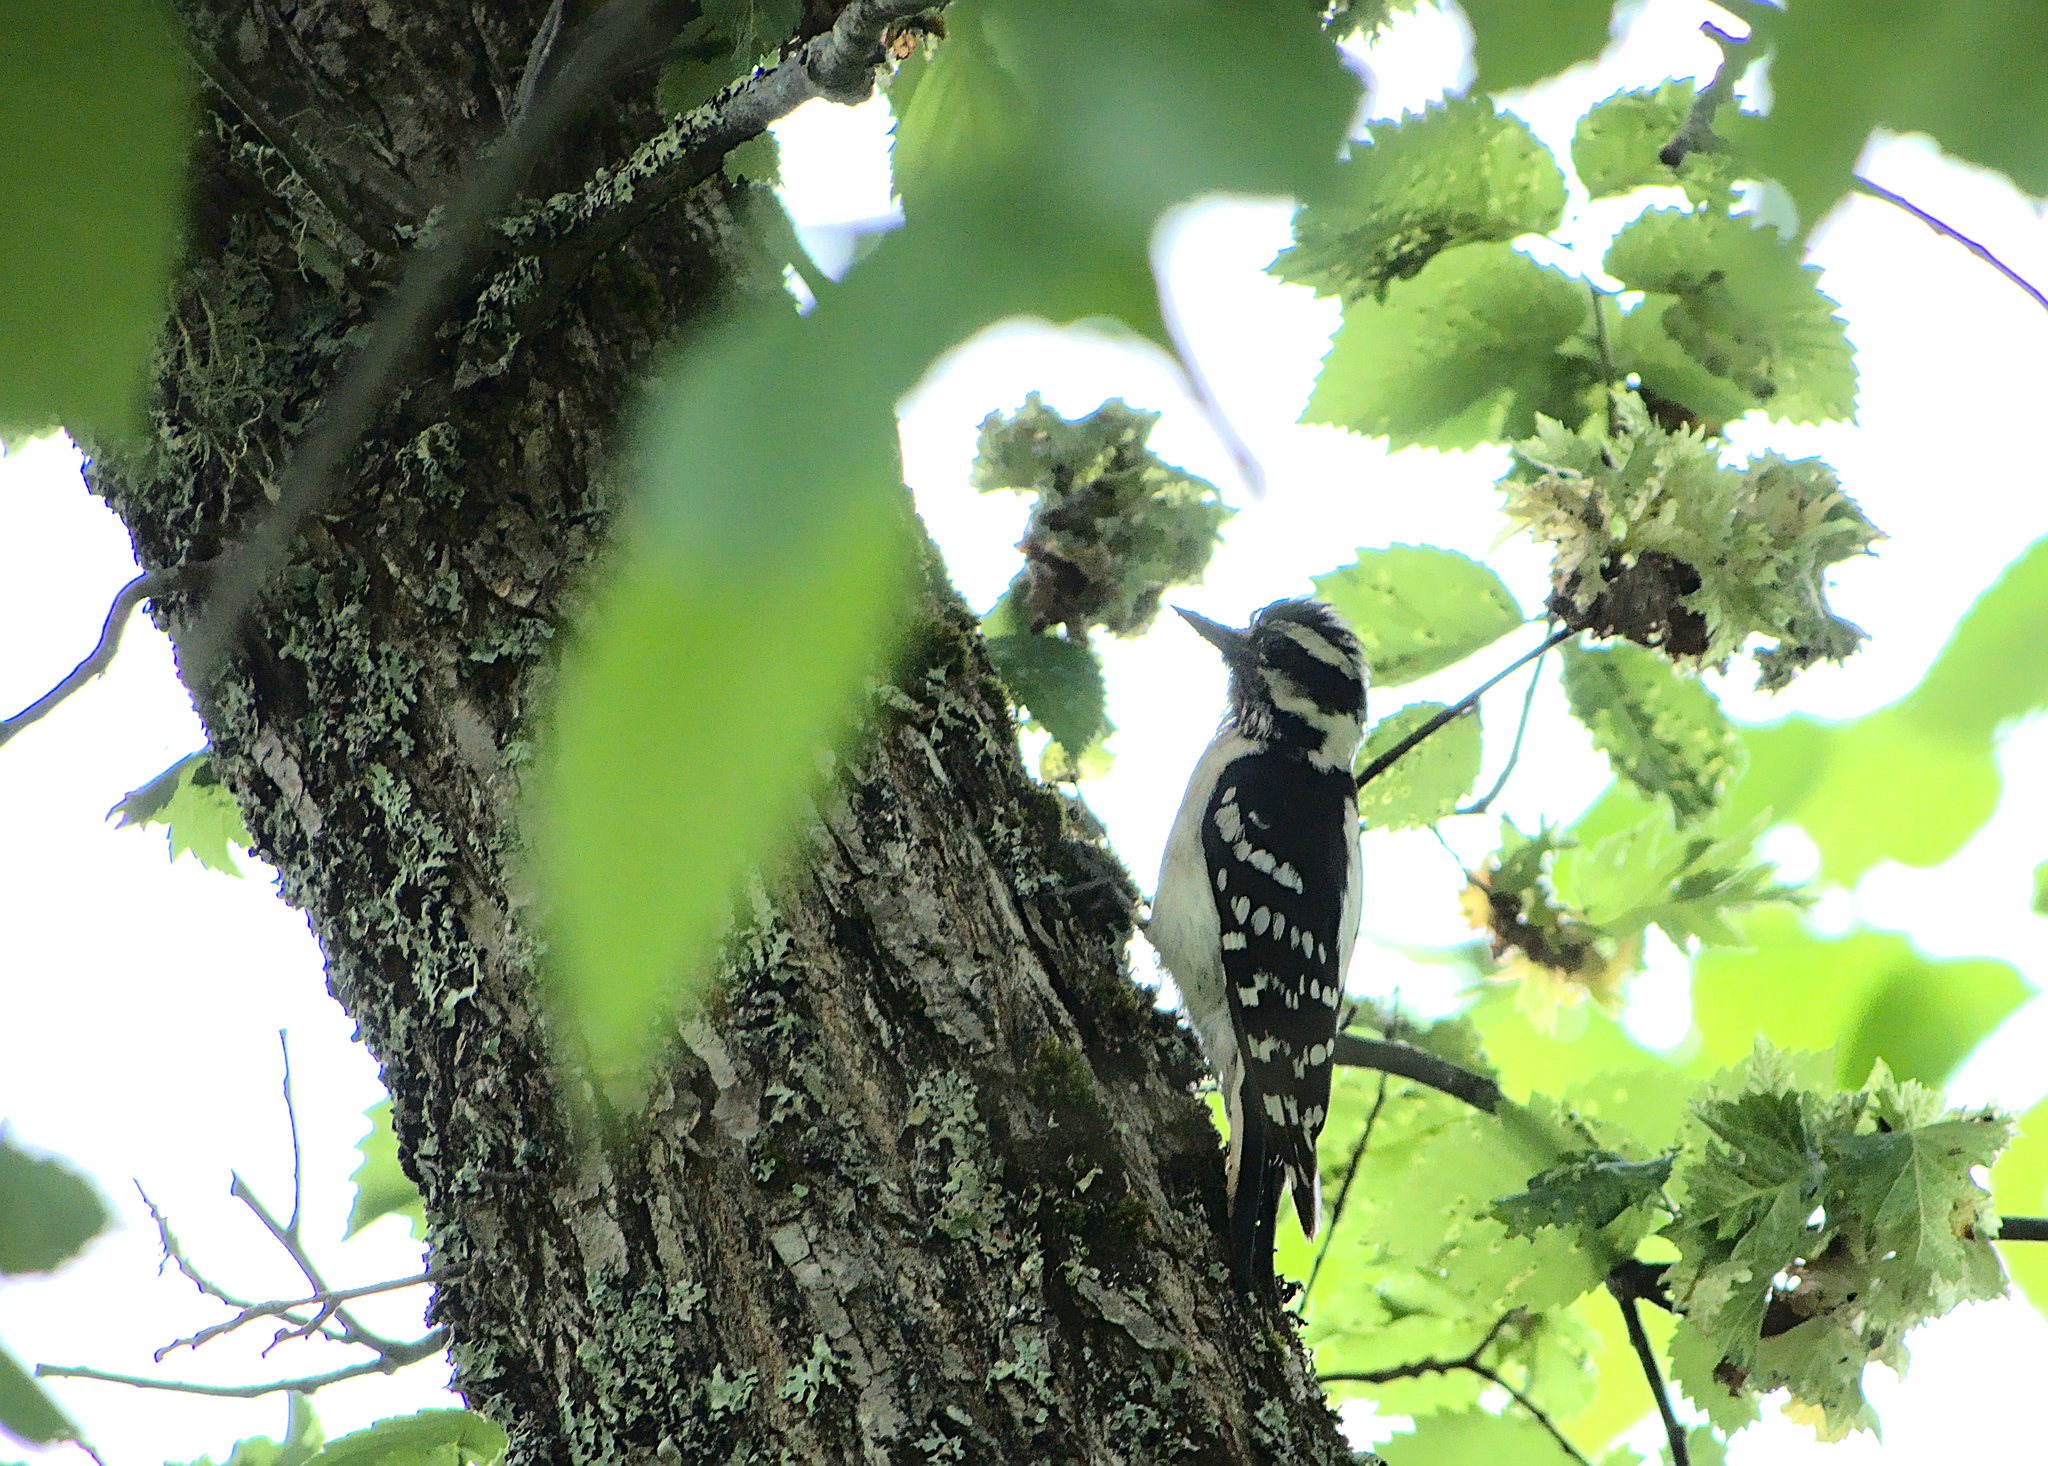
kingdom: Animalia
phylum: Chordata
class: Aves
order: Piciformes
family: Picidae
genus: Dryobates
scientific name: Dryobates pubescens
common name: Downy woodpecker
